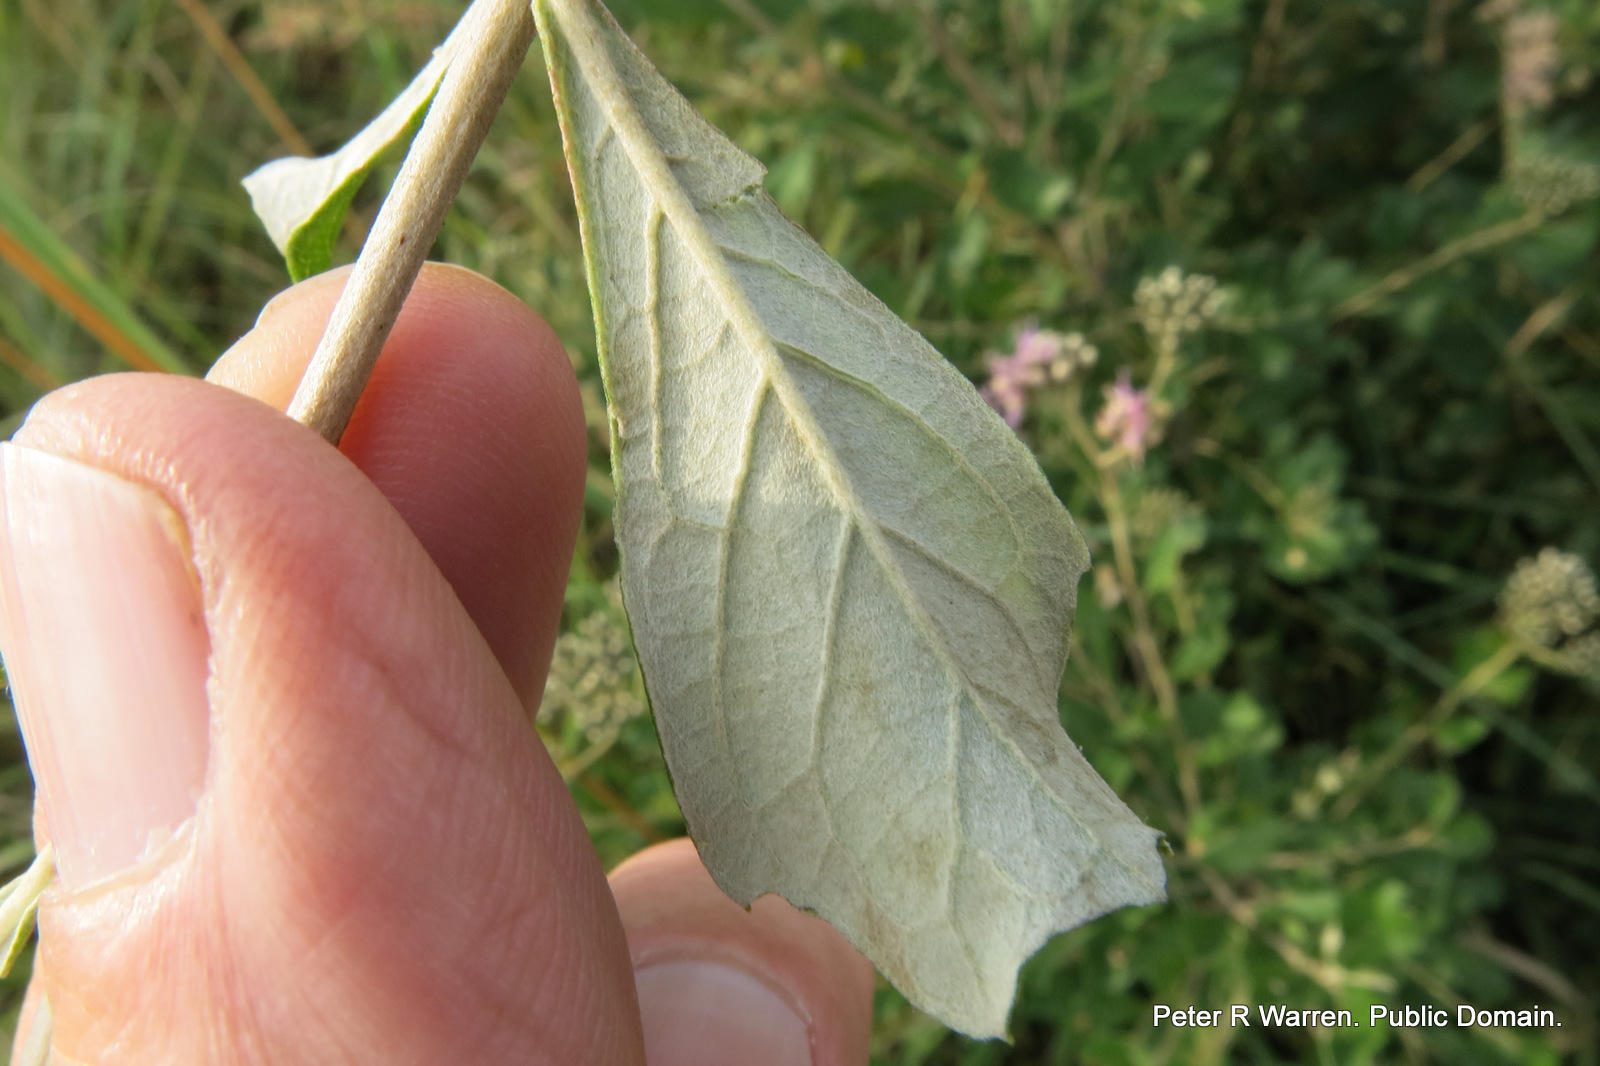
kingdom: Plantae
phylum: Tracheophyta
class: Magnoliopsida
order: Asterales
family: Asteraceae
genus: Gymnanthemum
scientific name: Gymnanthemum corymbosum
